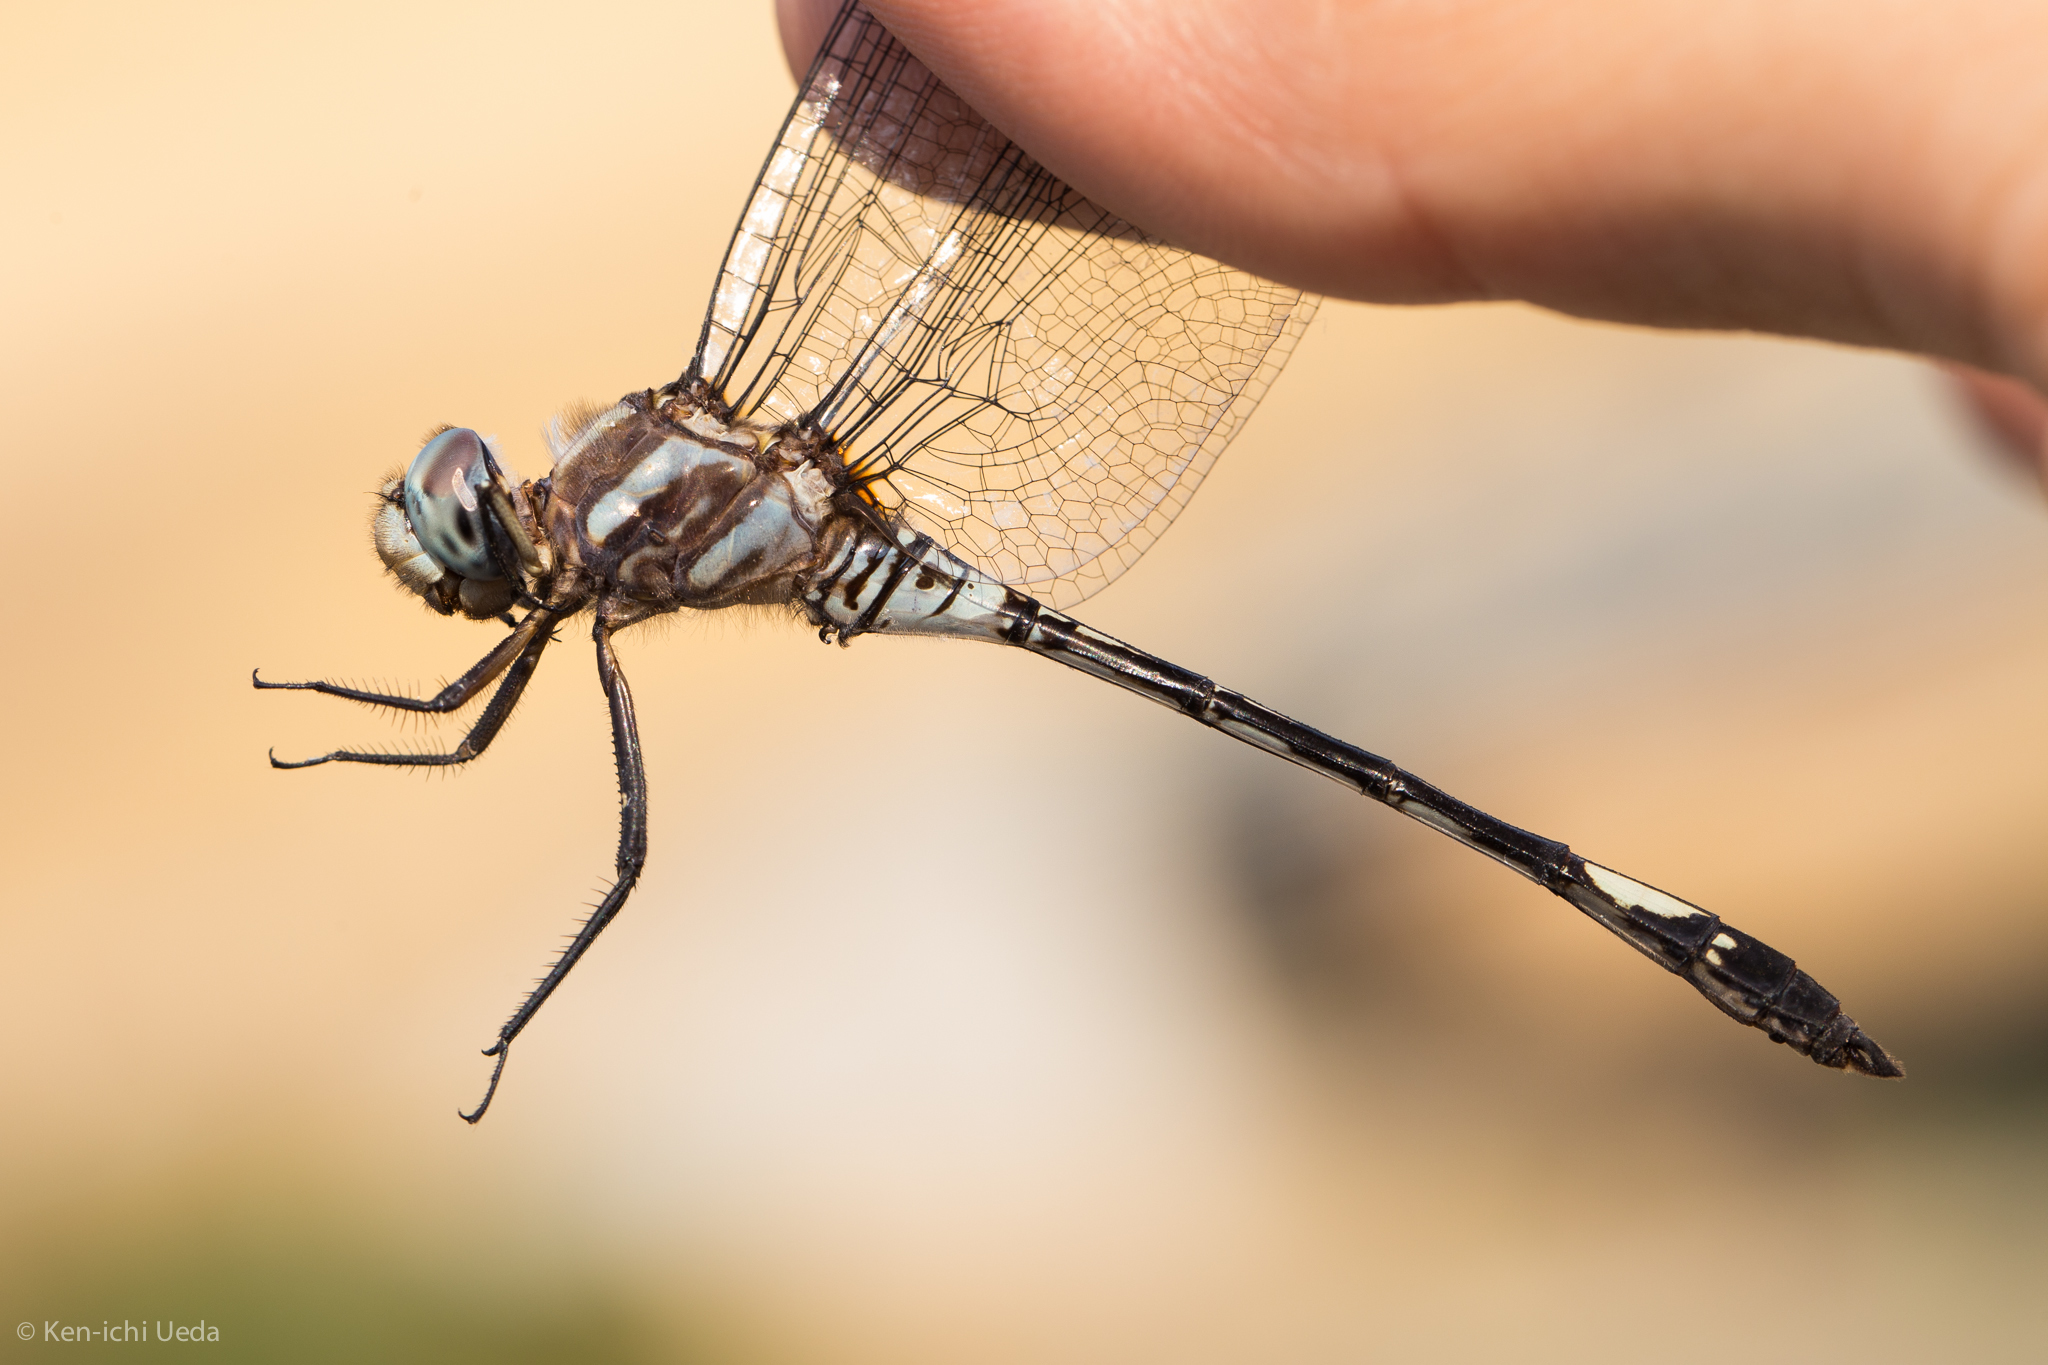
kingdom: Animalia
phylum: Arthropoda
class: Insecta
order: Odonata
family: Libellulidae
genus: Brechmorhoga
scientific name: Brechmorhoga mendax
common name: Pale-faced clubskimmer
